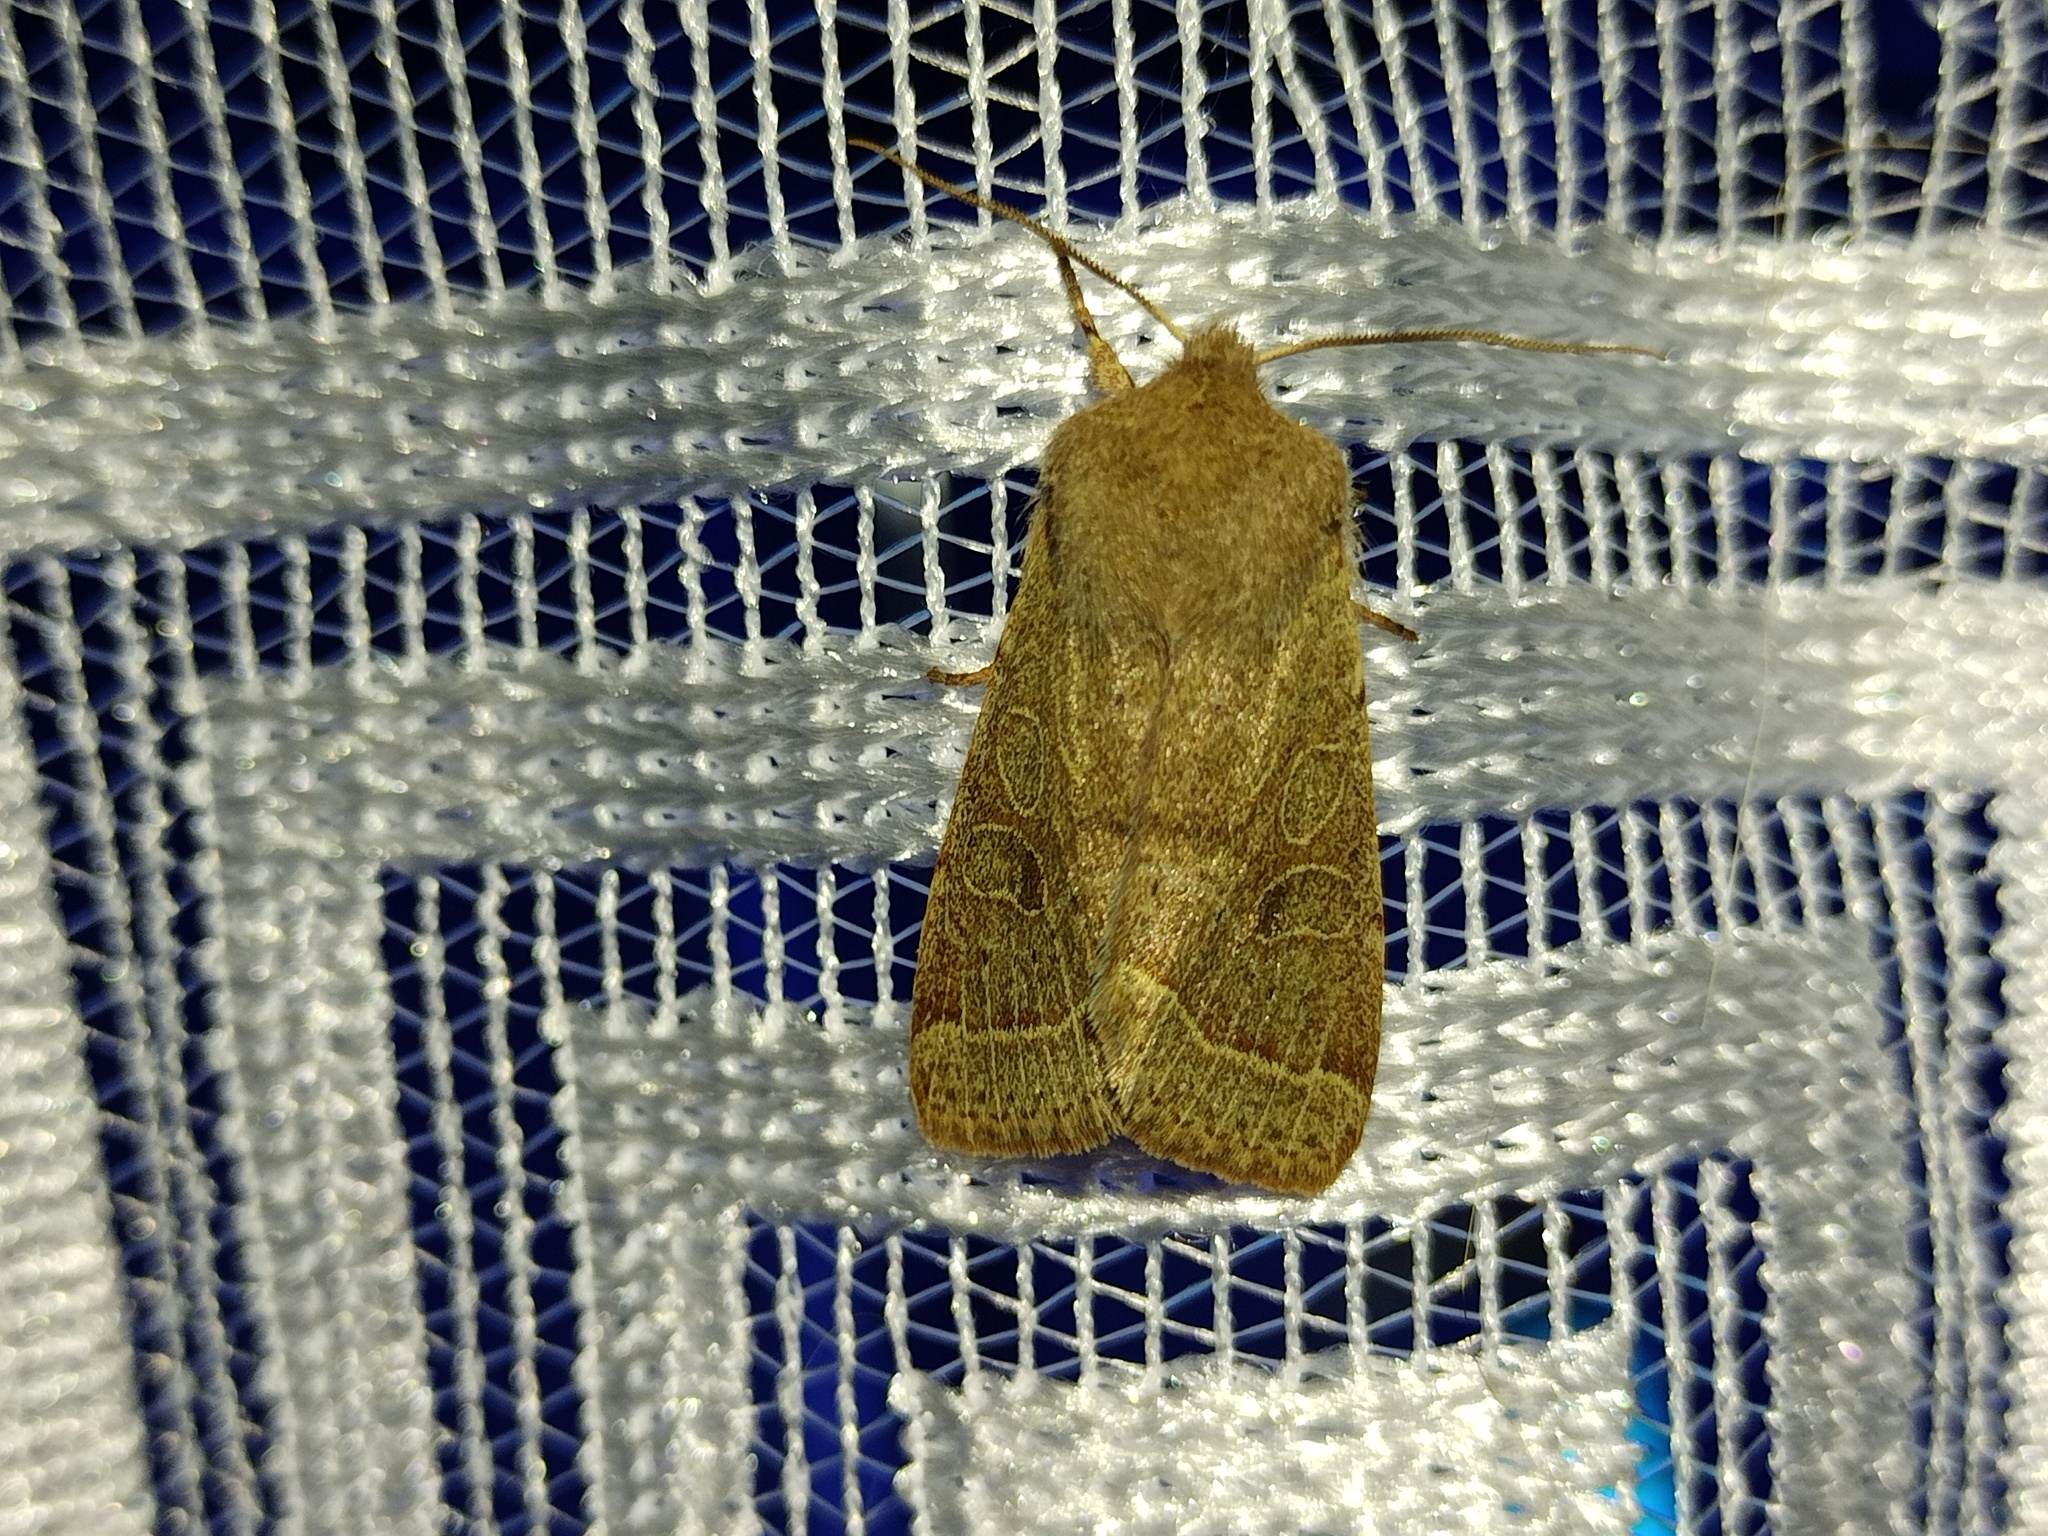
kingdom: Animalia
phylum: Arthropoda
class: Insecta
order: Lepidoptera
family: Noctuidae
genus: Orthosia
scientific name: Orthosia cerasi
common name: Common quaker
